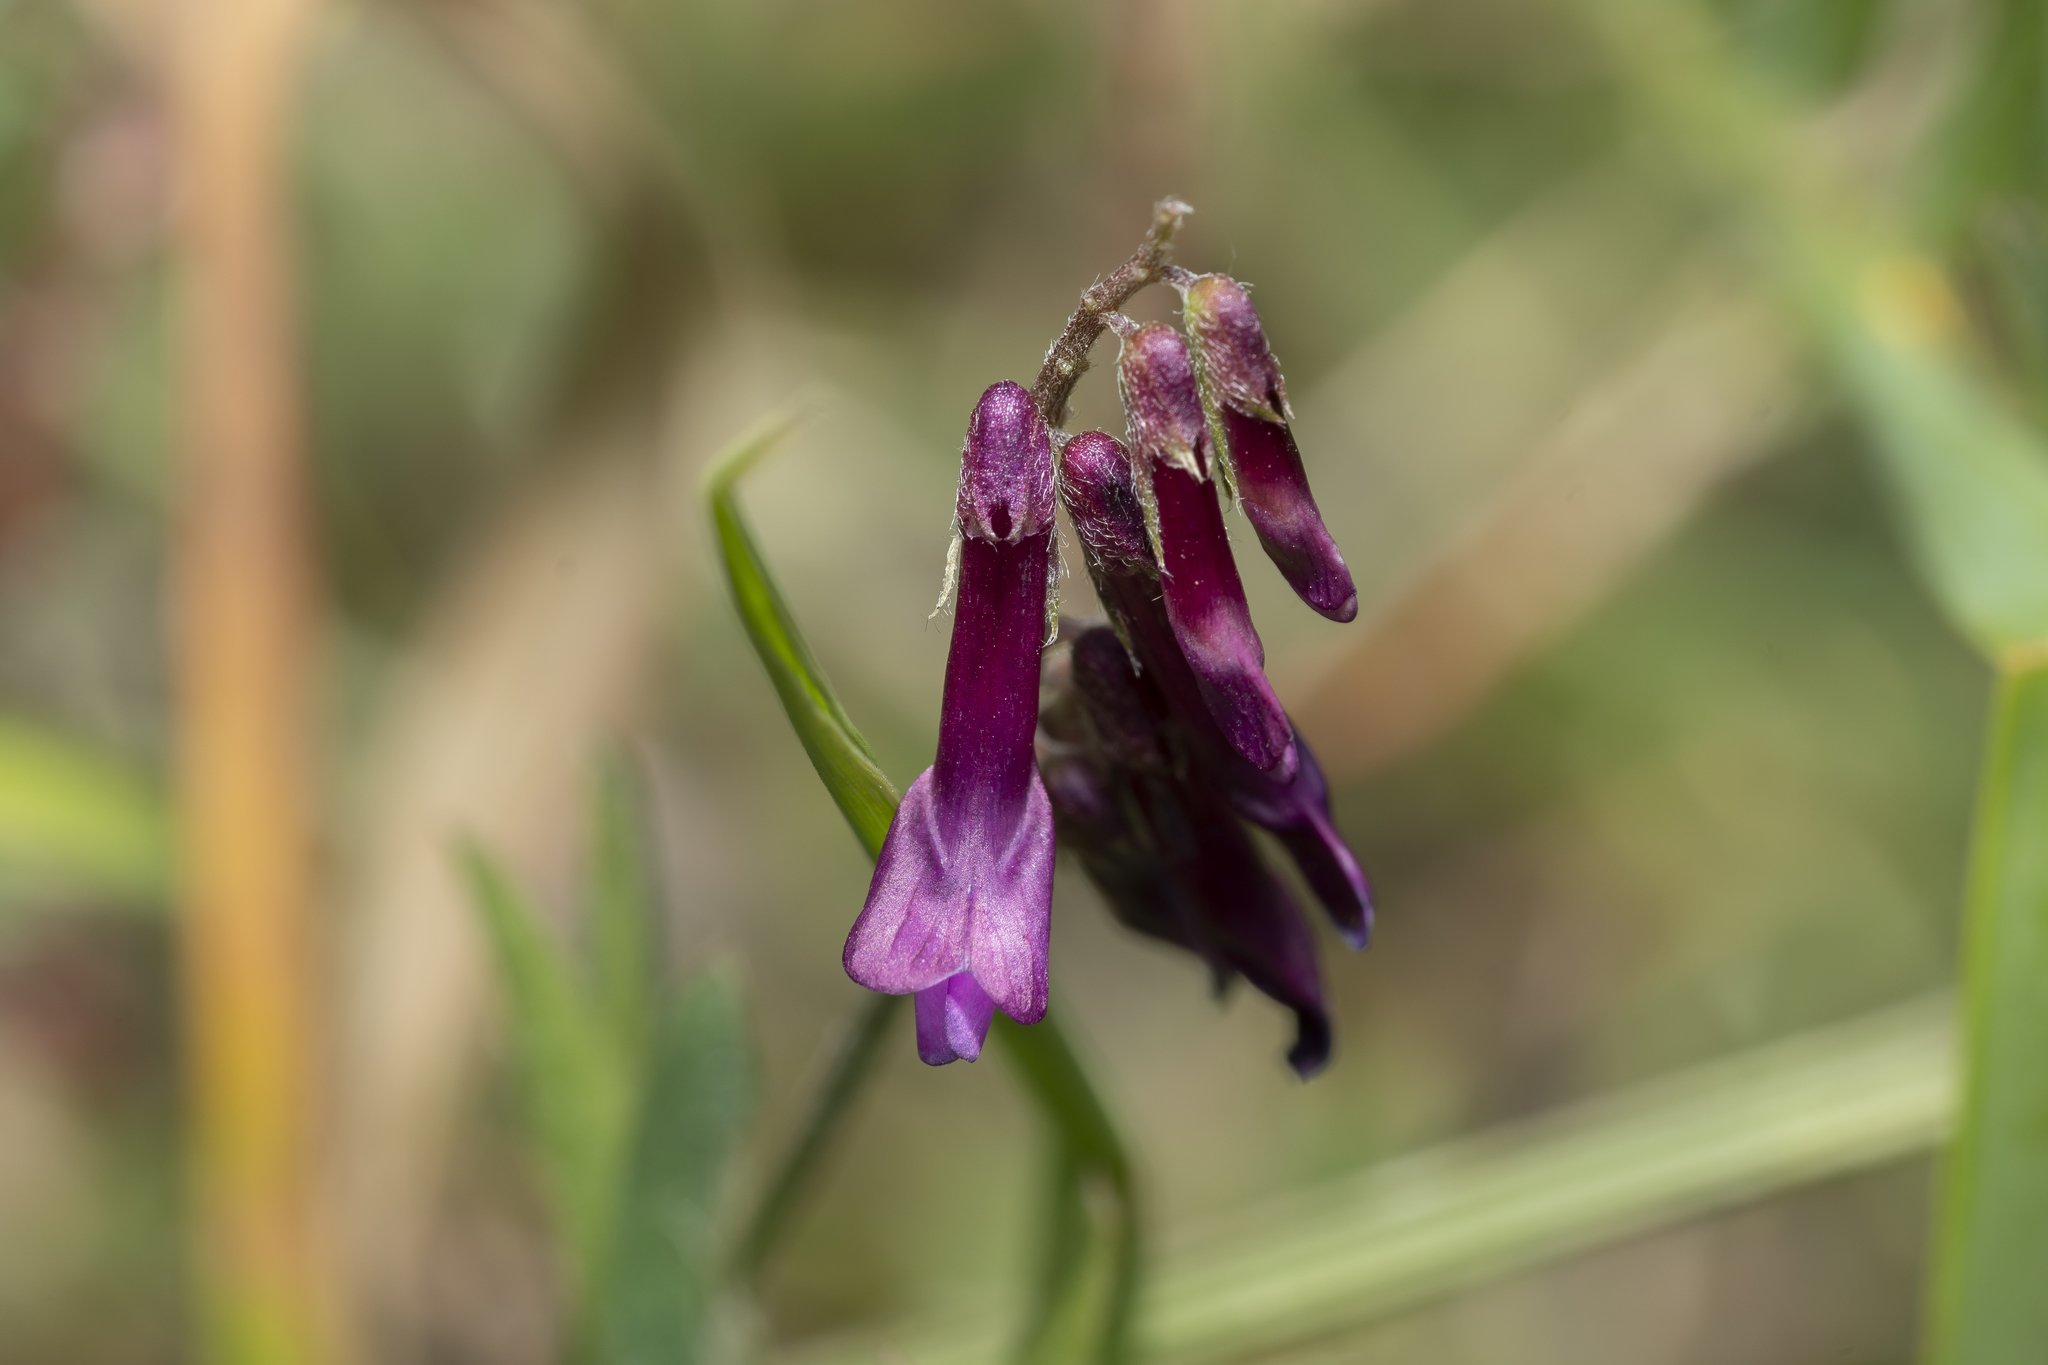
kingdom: Plantae
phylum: Tracheophyta
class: Magnoliopsida
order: Fabales
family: Fabaceae
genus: Vicia
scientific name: Vicia eriocarpa
